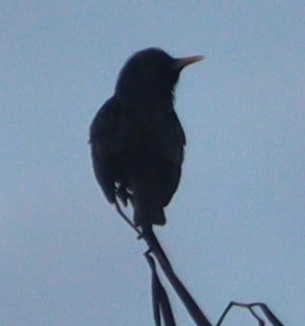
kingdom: Animalia
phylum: Chordata
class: Aves
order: Passeriformes
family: Sturnidae
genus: Sturnus
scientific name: Sturnus vulgaris
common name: Common starling
